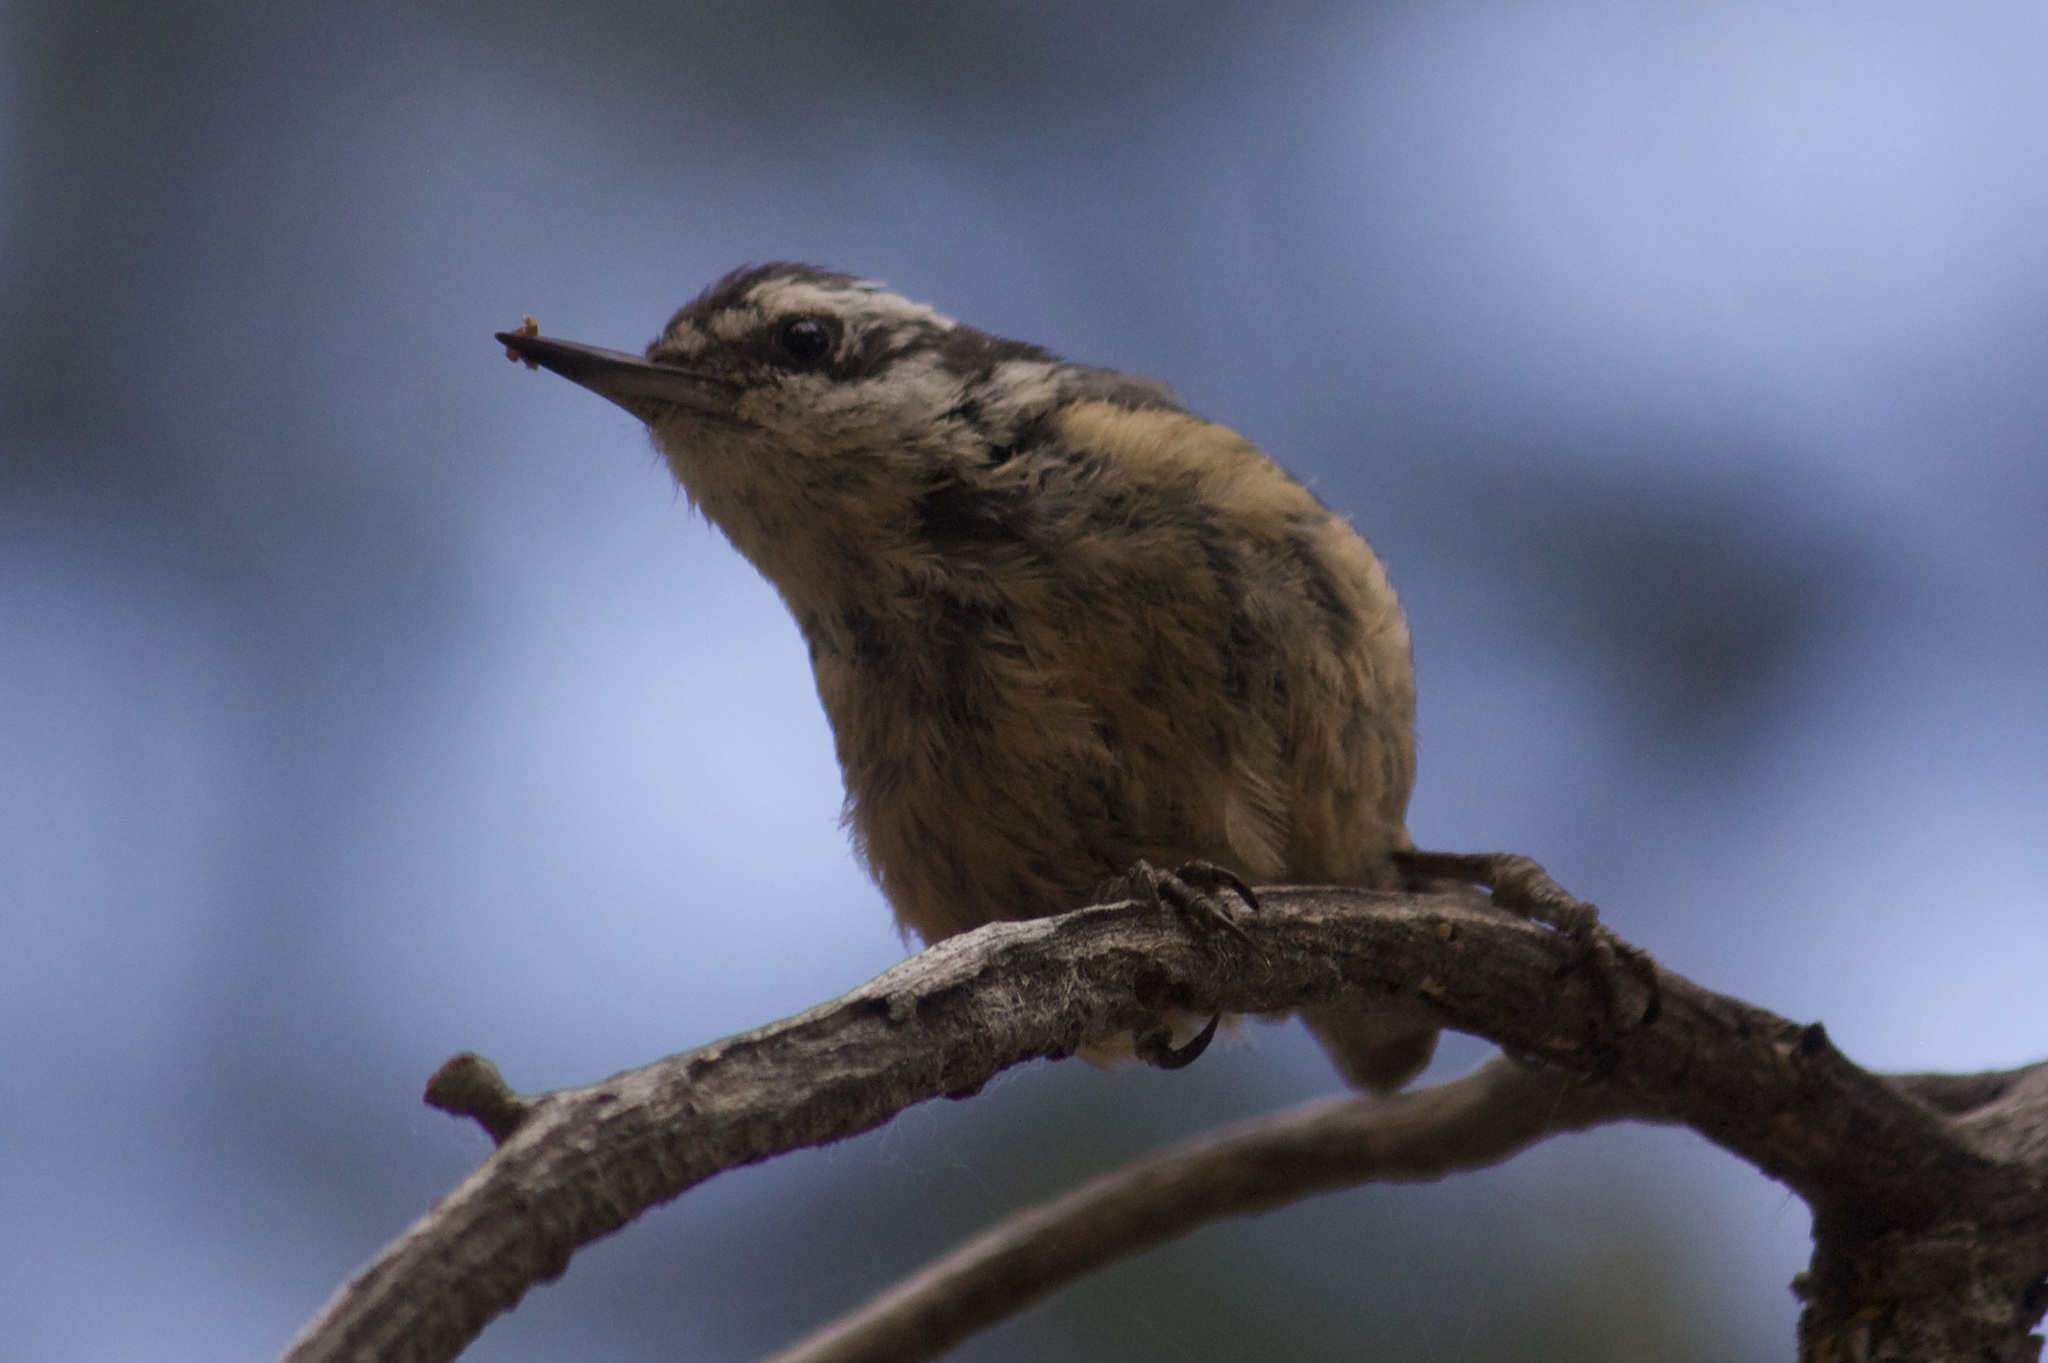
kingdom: Animalia
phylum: Chordata
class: Aves
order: Passeriformes
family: Sittidae
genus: Sitta
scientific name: Sitta canadensis
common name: Red-breasted nuthatch
